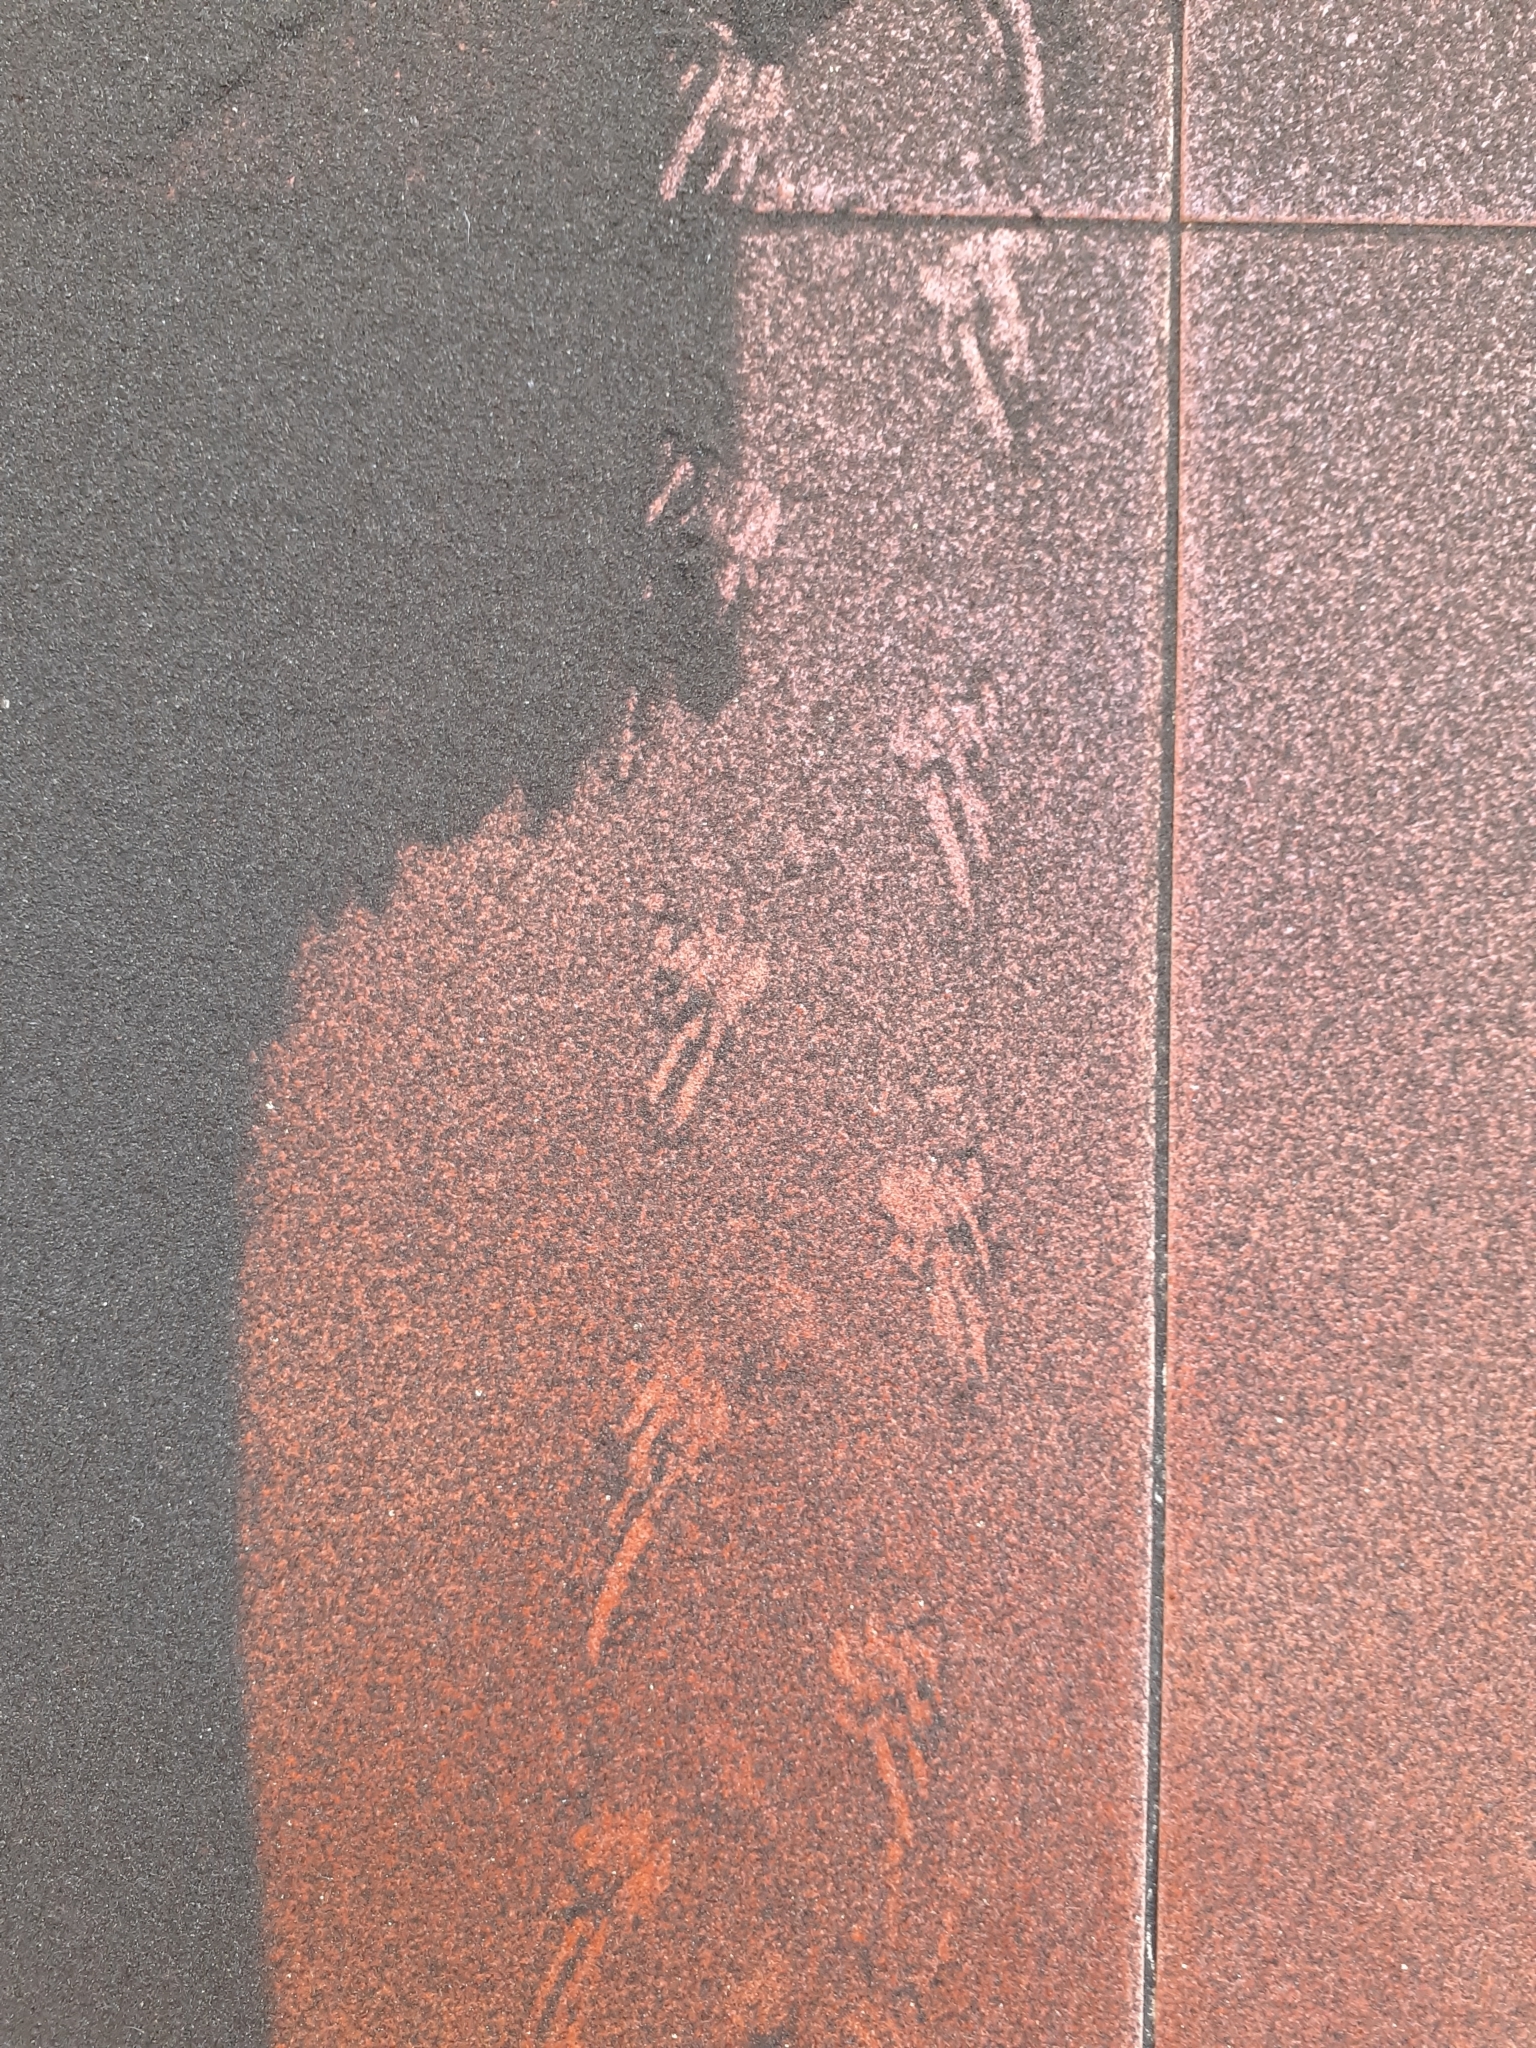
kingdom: Animalia
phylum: Chordata
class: Squamata
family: Phyllodactylidae
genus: Tarentola
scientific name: Tarentola delalandii
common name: Tenerife wall gecko
